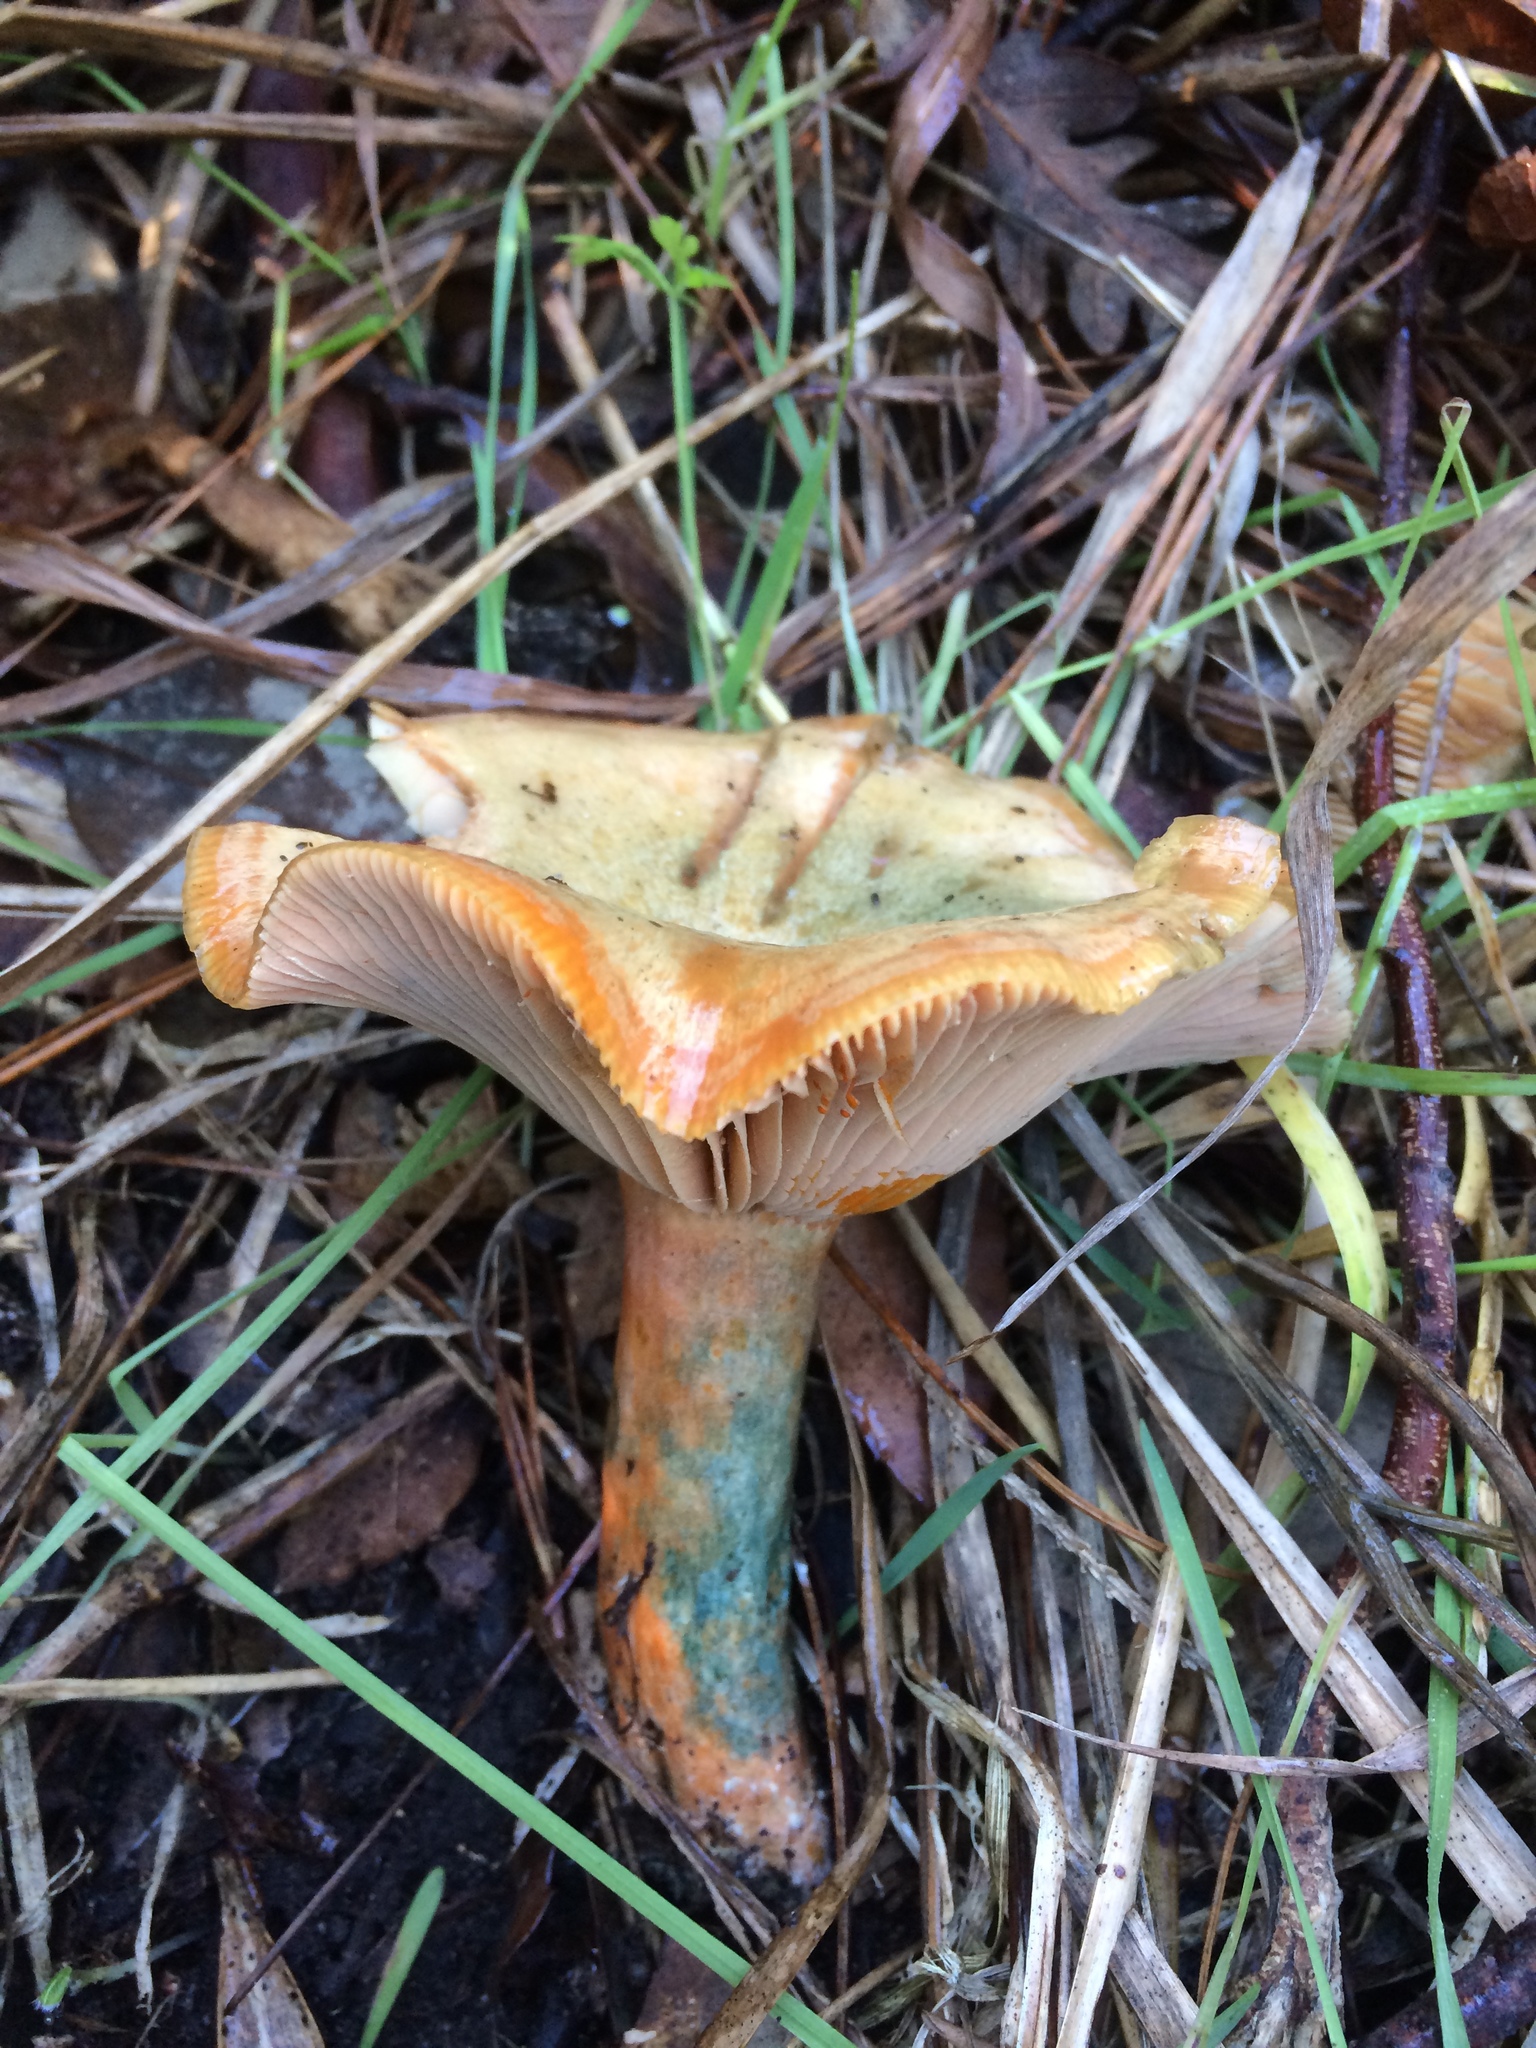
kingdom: Fungi
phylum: Basidiomycota
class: Agaricomycetes
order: Russulales
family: Russulaceae
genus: Lactarius
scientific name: Lactarius deliciosus
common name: Saffron milk-cap
